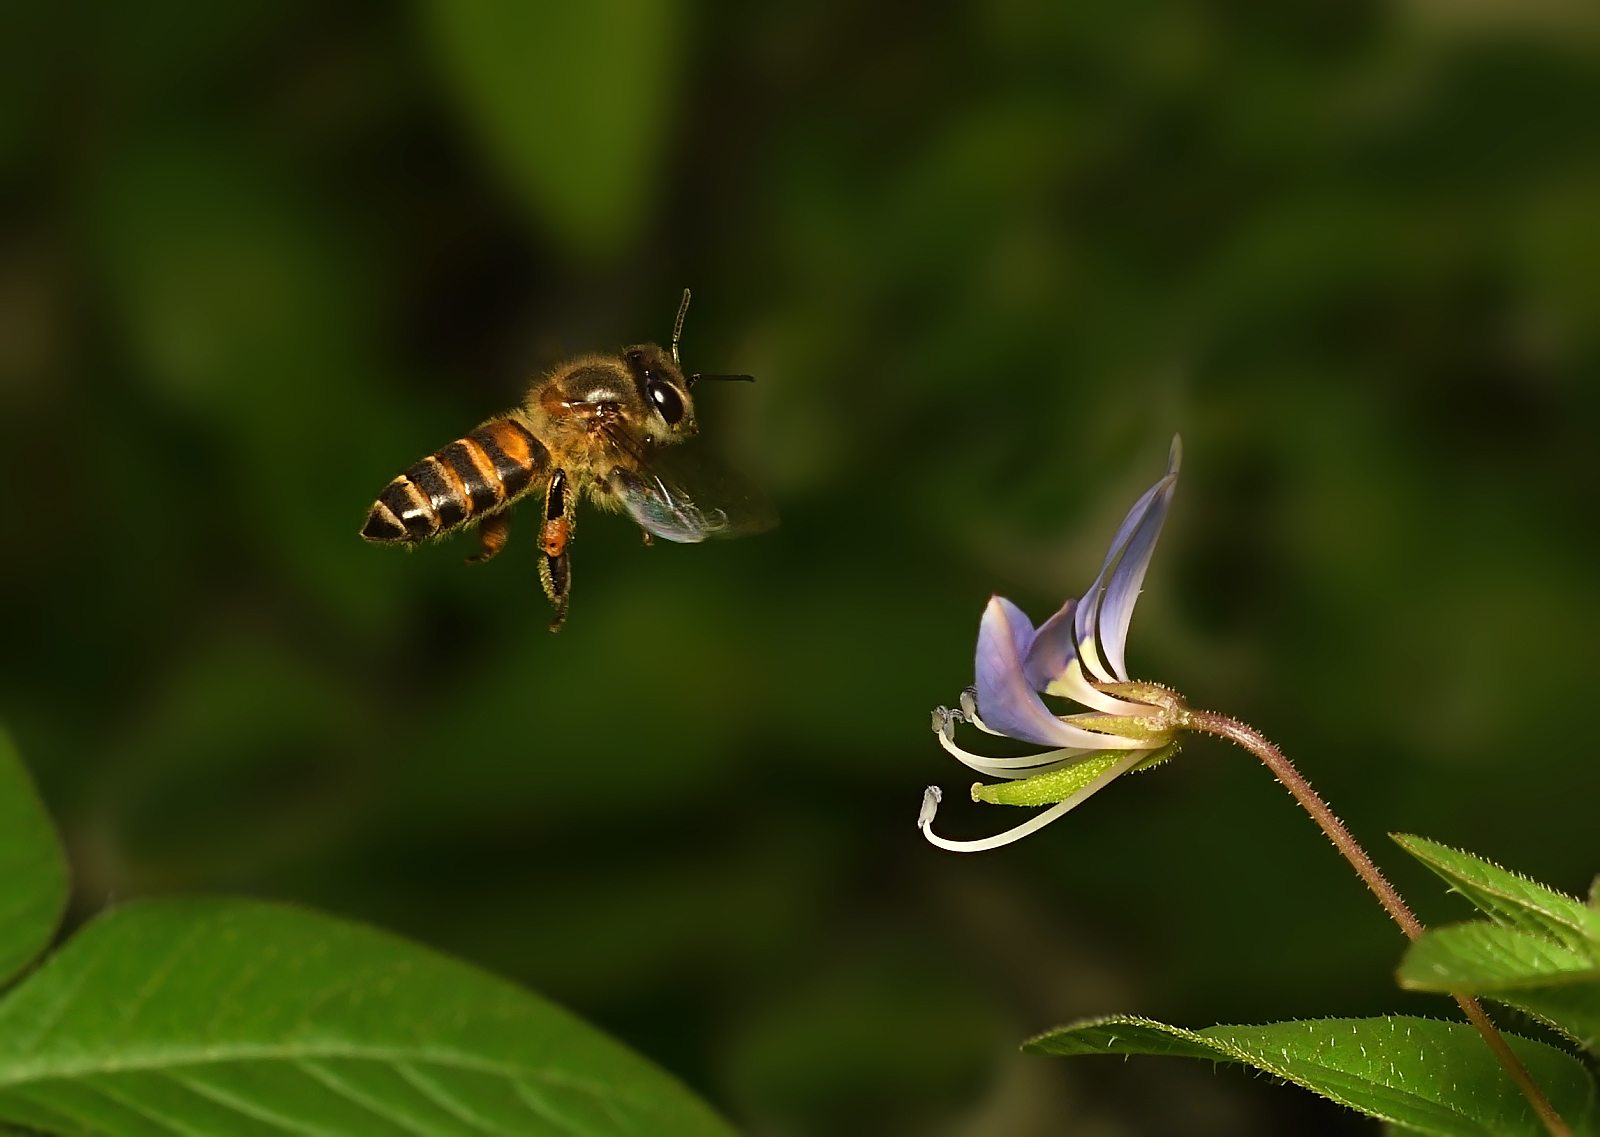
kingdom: Animalia
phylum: Arthropoda
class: Insecta
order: Hymenoptera
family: Apidae
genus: Apis
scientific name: Apis cerana
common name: Honey bee
